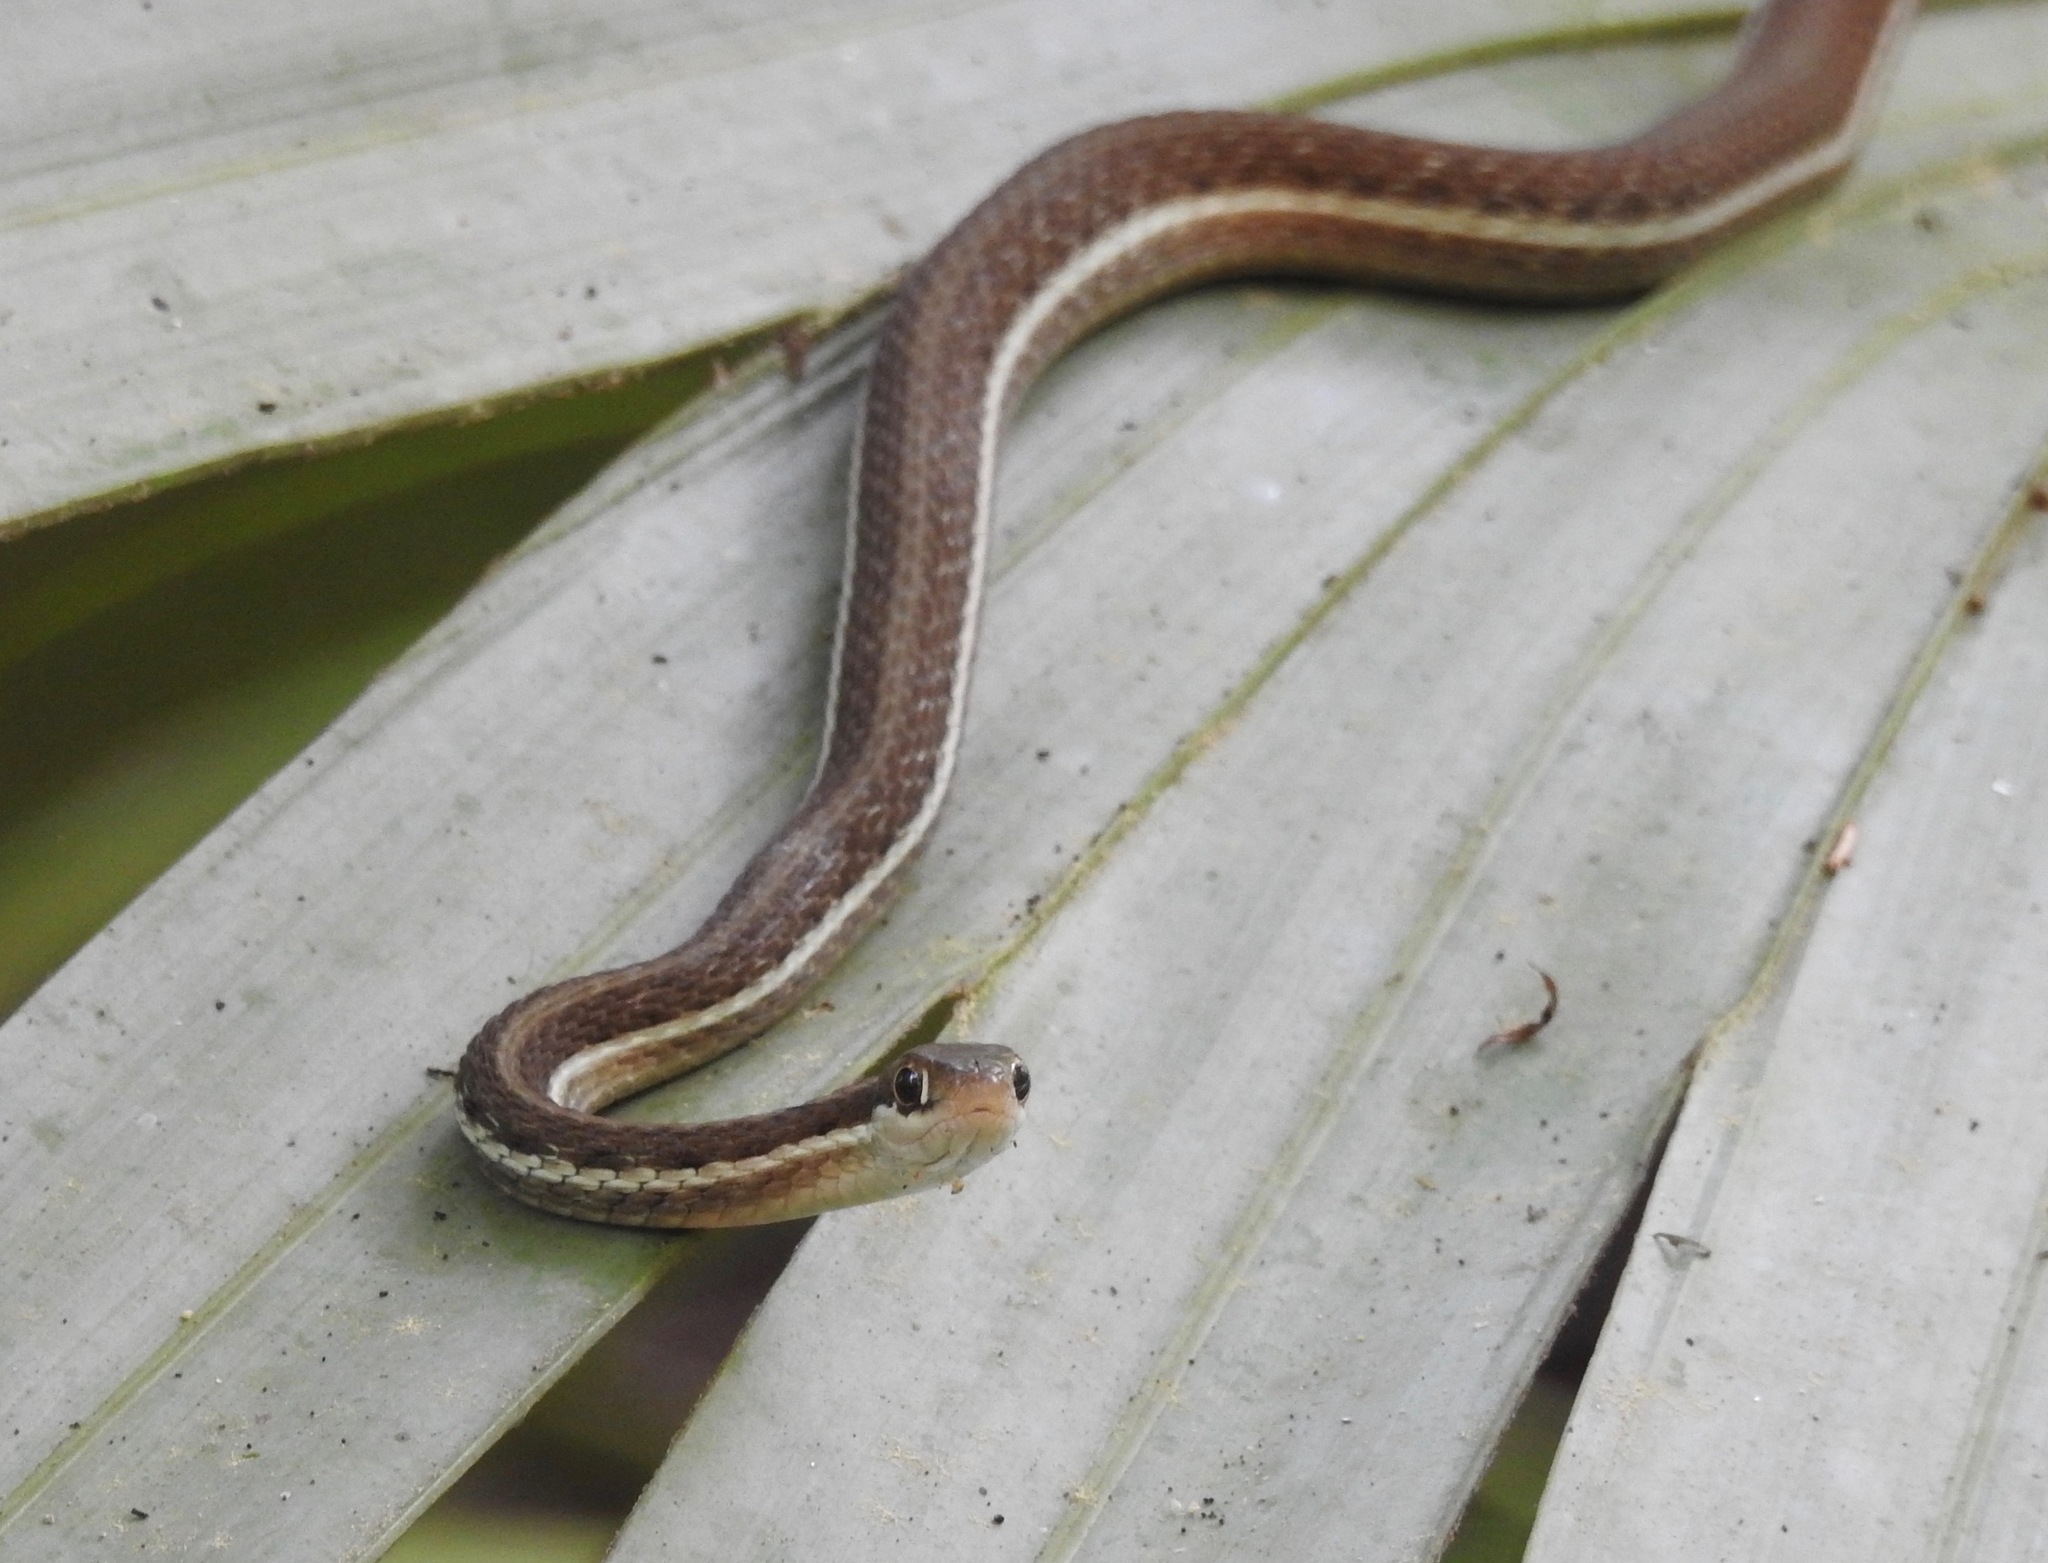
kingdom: Animalia
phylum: Chordata
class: Squamata
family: Colubridae
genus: Thamnophis
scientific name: Thamnophis saurita
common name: Eastern ribbonsnake
